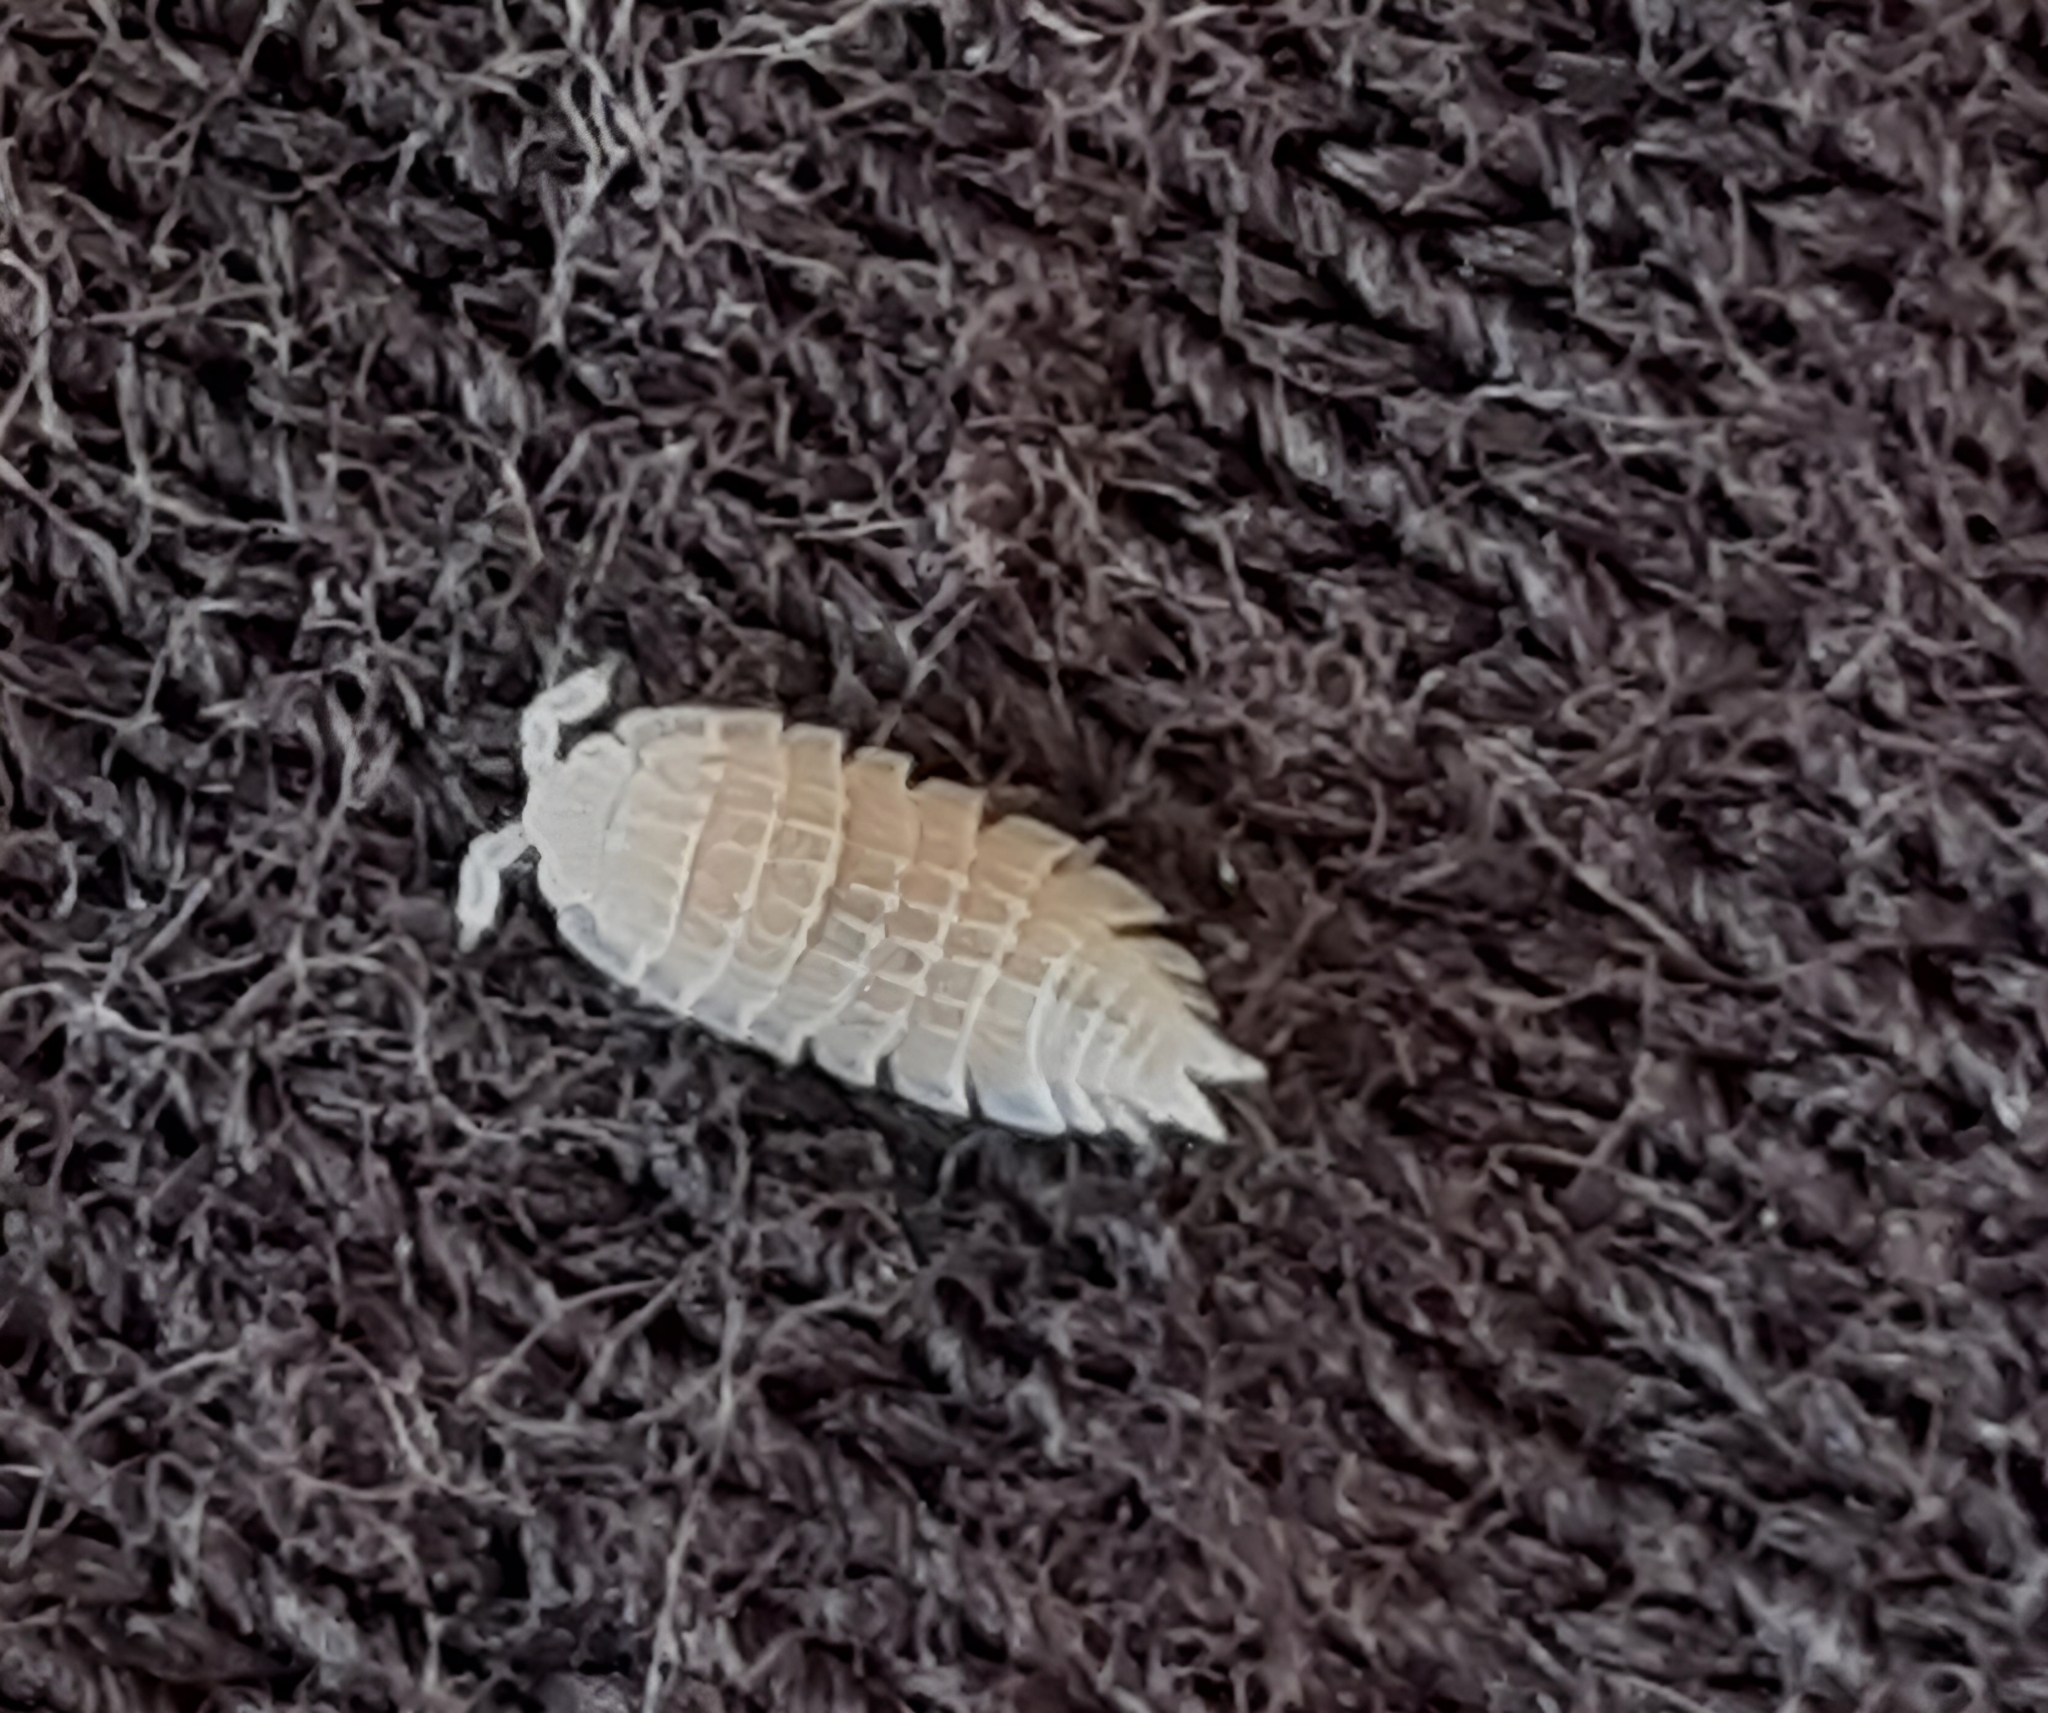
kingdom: Animalia
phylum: Arthropoda
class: Malacostraca
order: Isopoda
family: Platyarthridae
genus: Platyarthrus
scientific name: Platyarthrus
